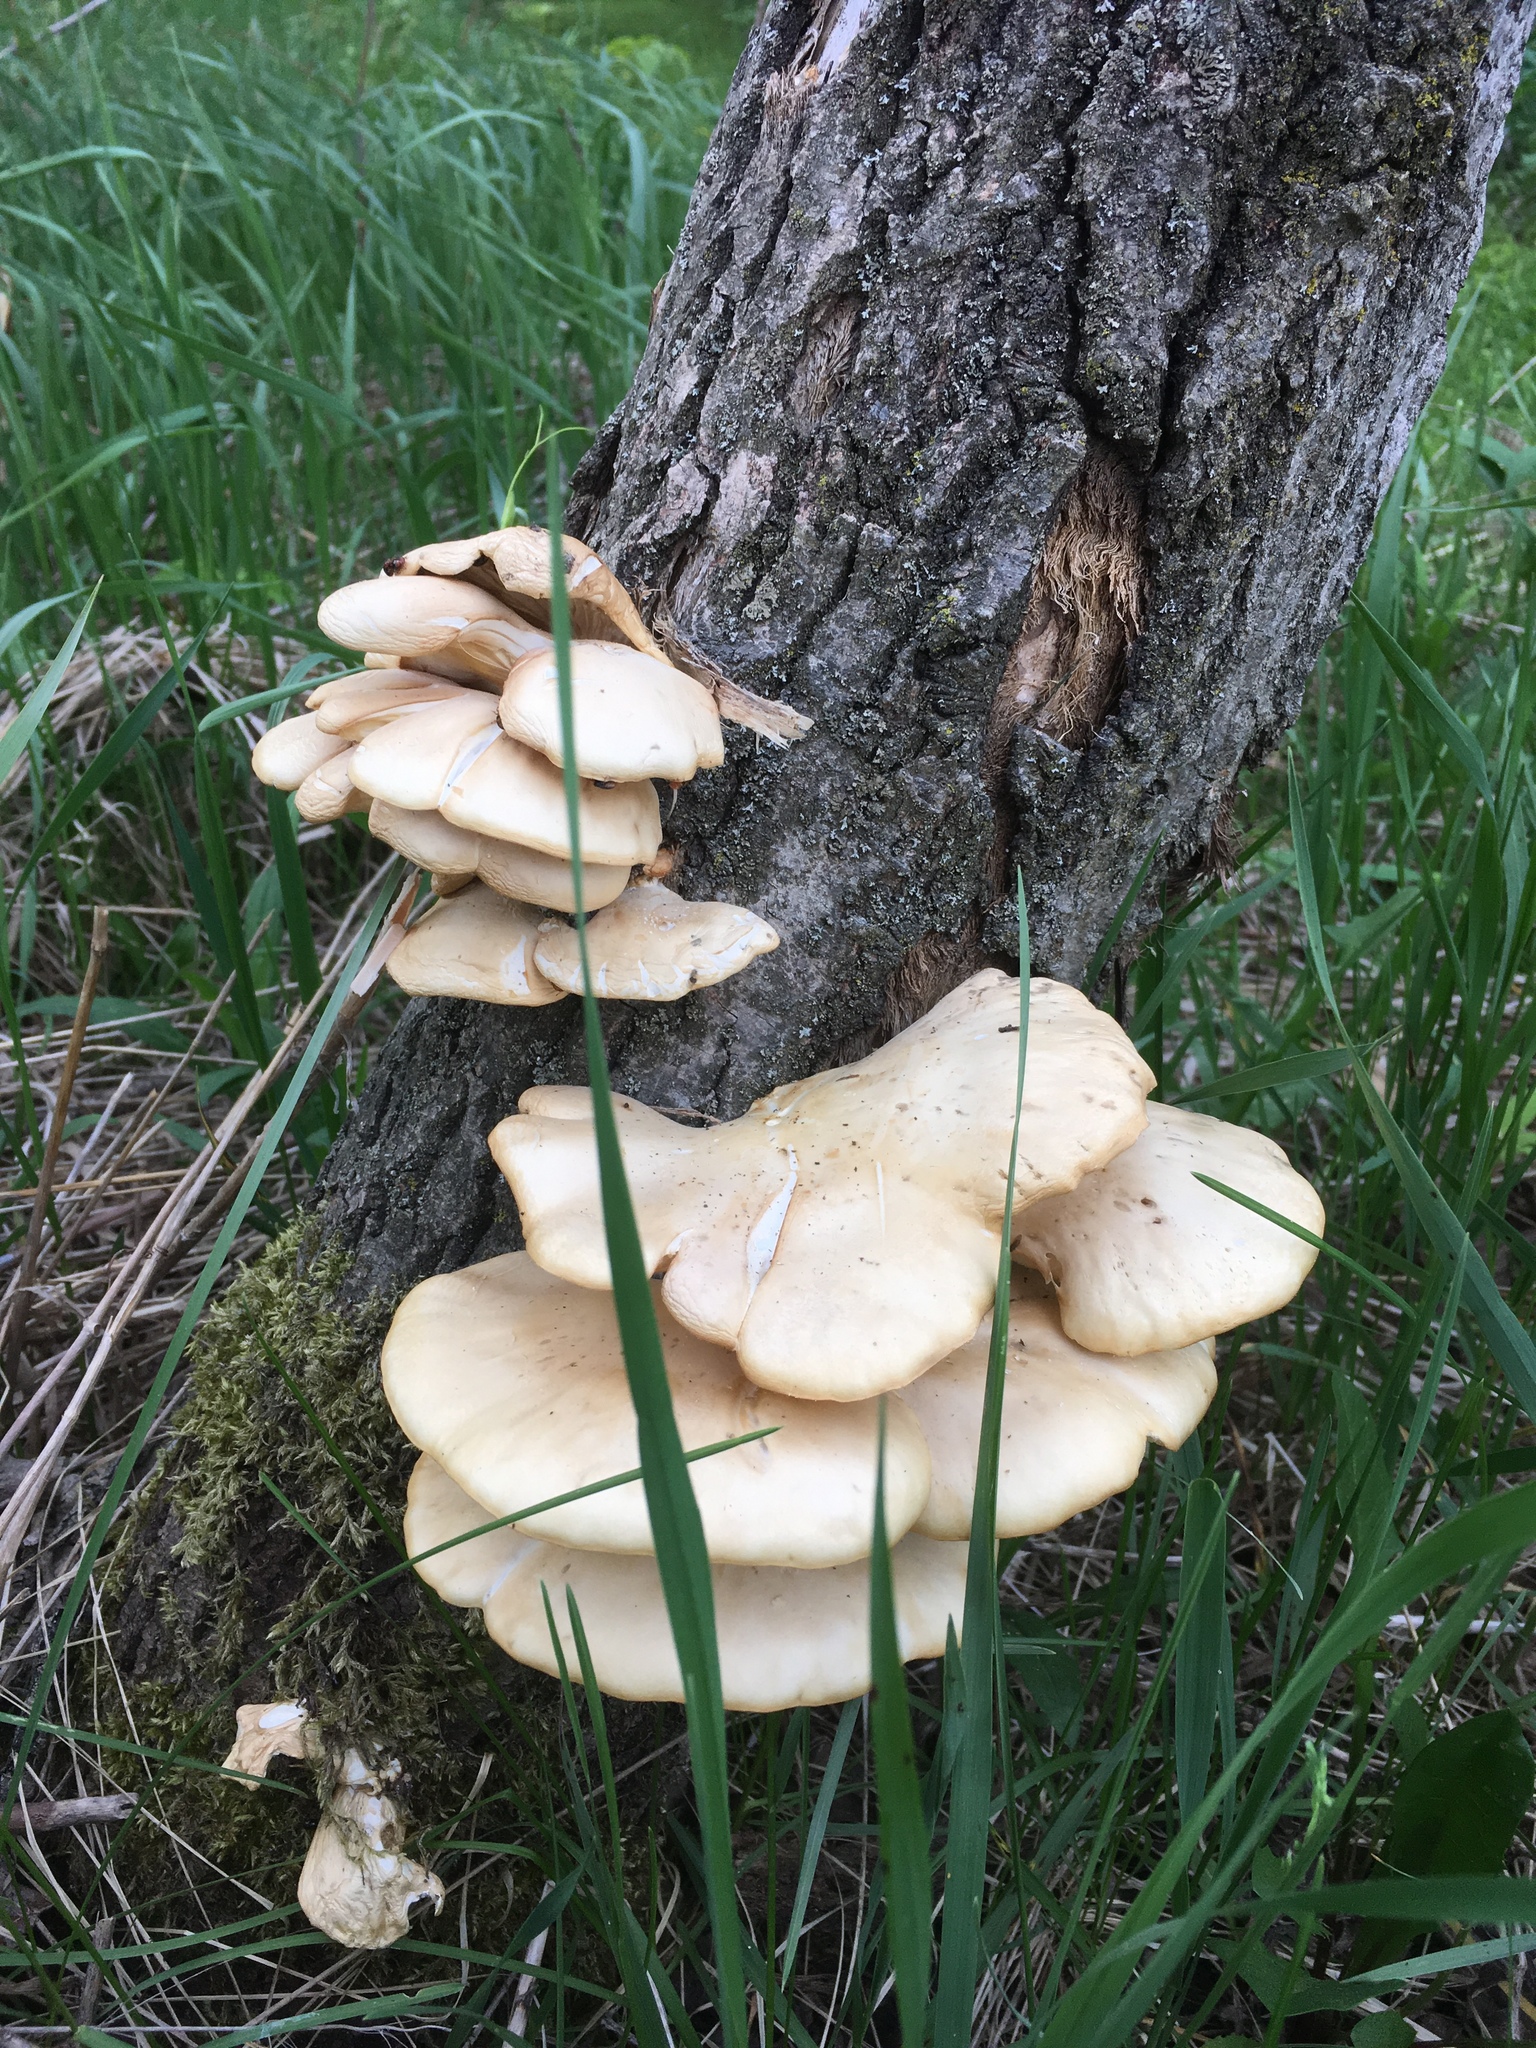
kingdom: Fungi
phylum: Basidiomycota
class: Agaricomycetes
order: Agaricales
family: Pleurotaceae
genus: Pleurotus
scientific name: Pleurotus ostreatus
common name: Oyster mushroom
